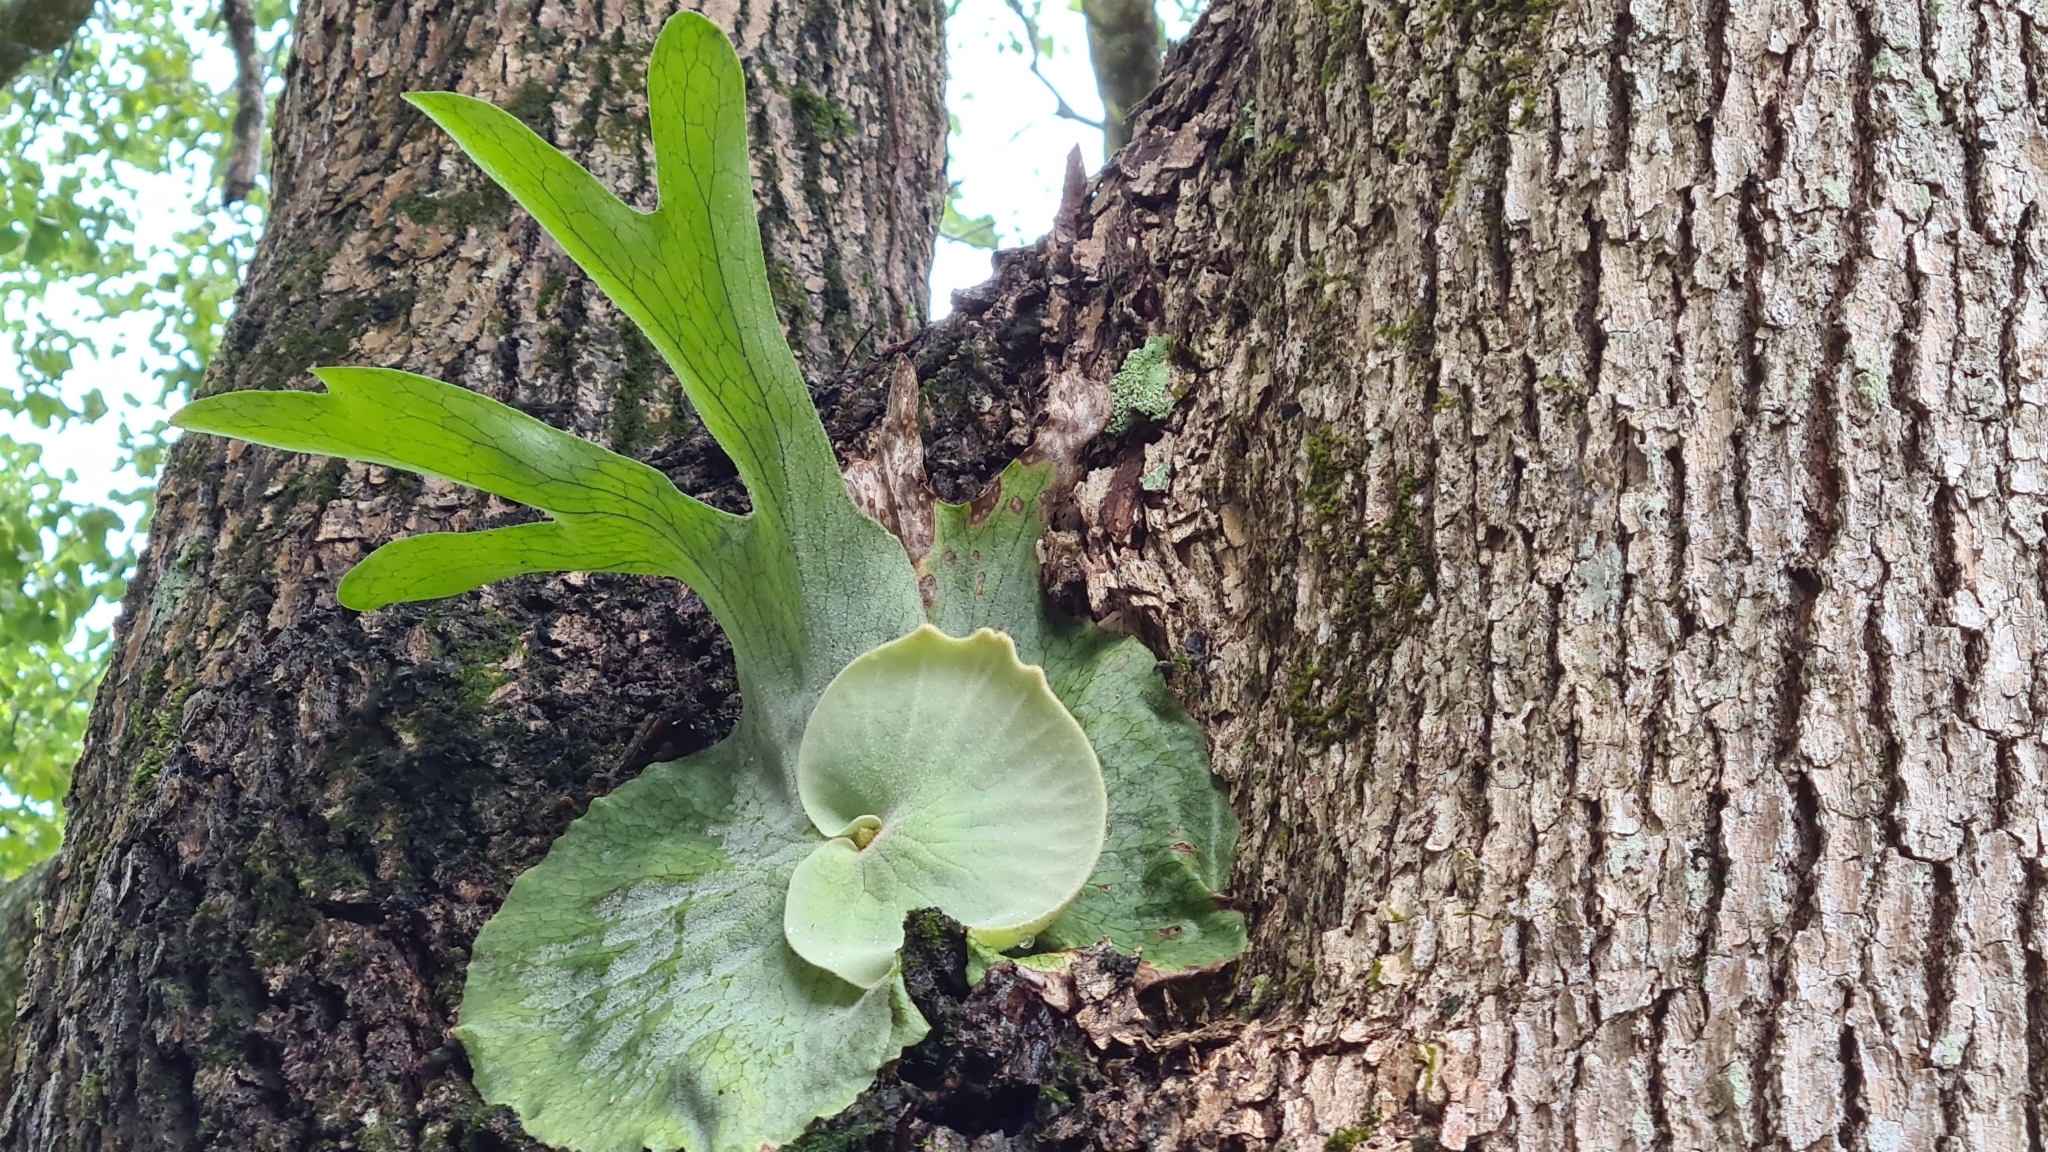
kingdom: Plantae
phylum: Tracheophyta
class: Polypodiopsida
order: Polypodiales
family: Polypodiaceae
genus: Platycerium
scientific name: Platycerium superbum
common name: Staghorn fern
